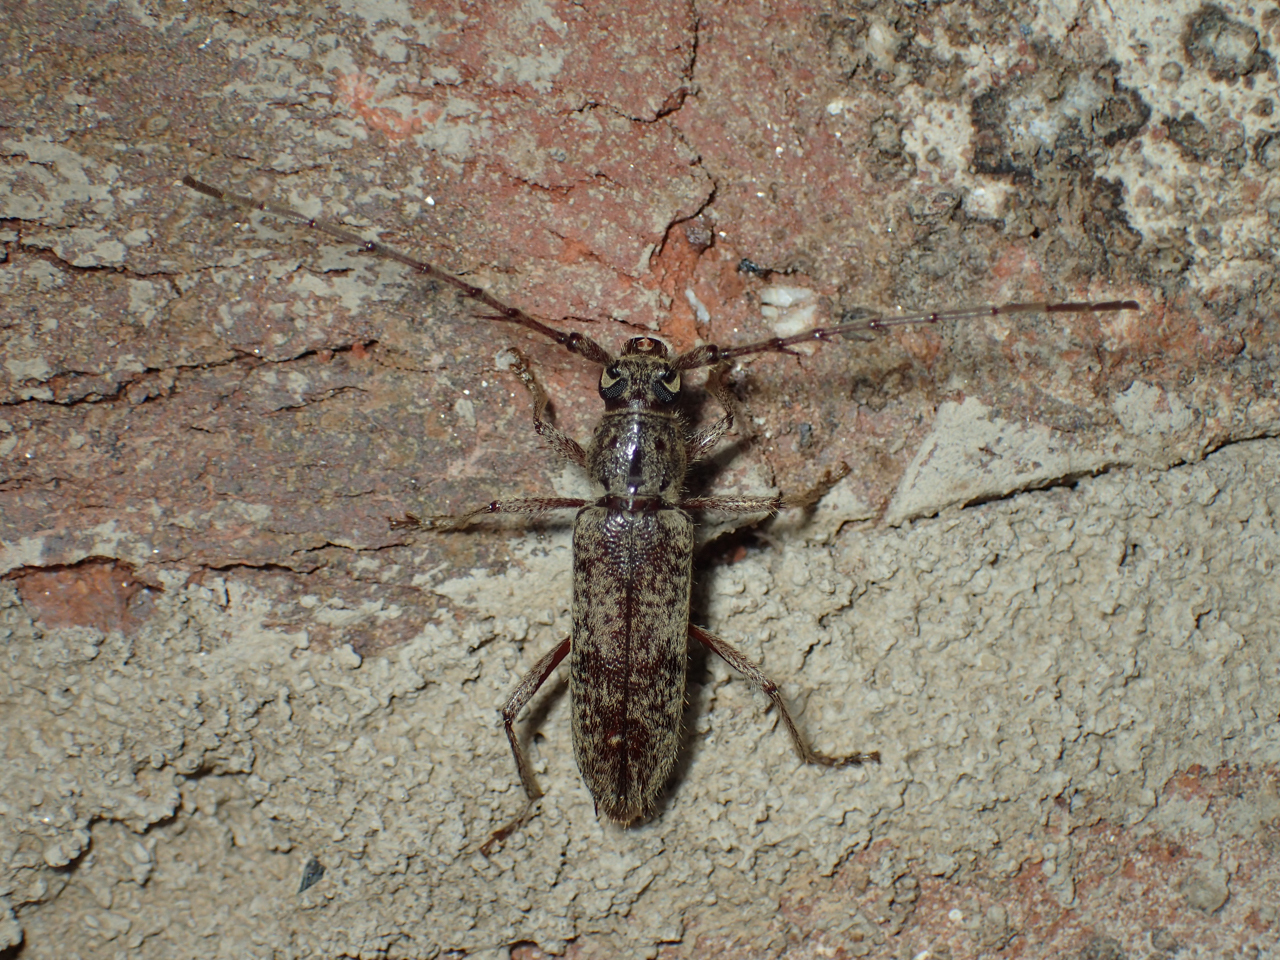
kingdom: Animalia
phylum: Arthropoda
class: Insecta
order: Coleoptera
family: Cerambycidae
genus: Elaphidion
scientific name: Elaphidion mucronatum
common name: Spined oak borer
